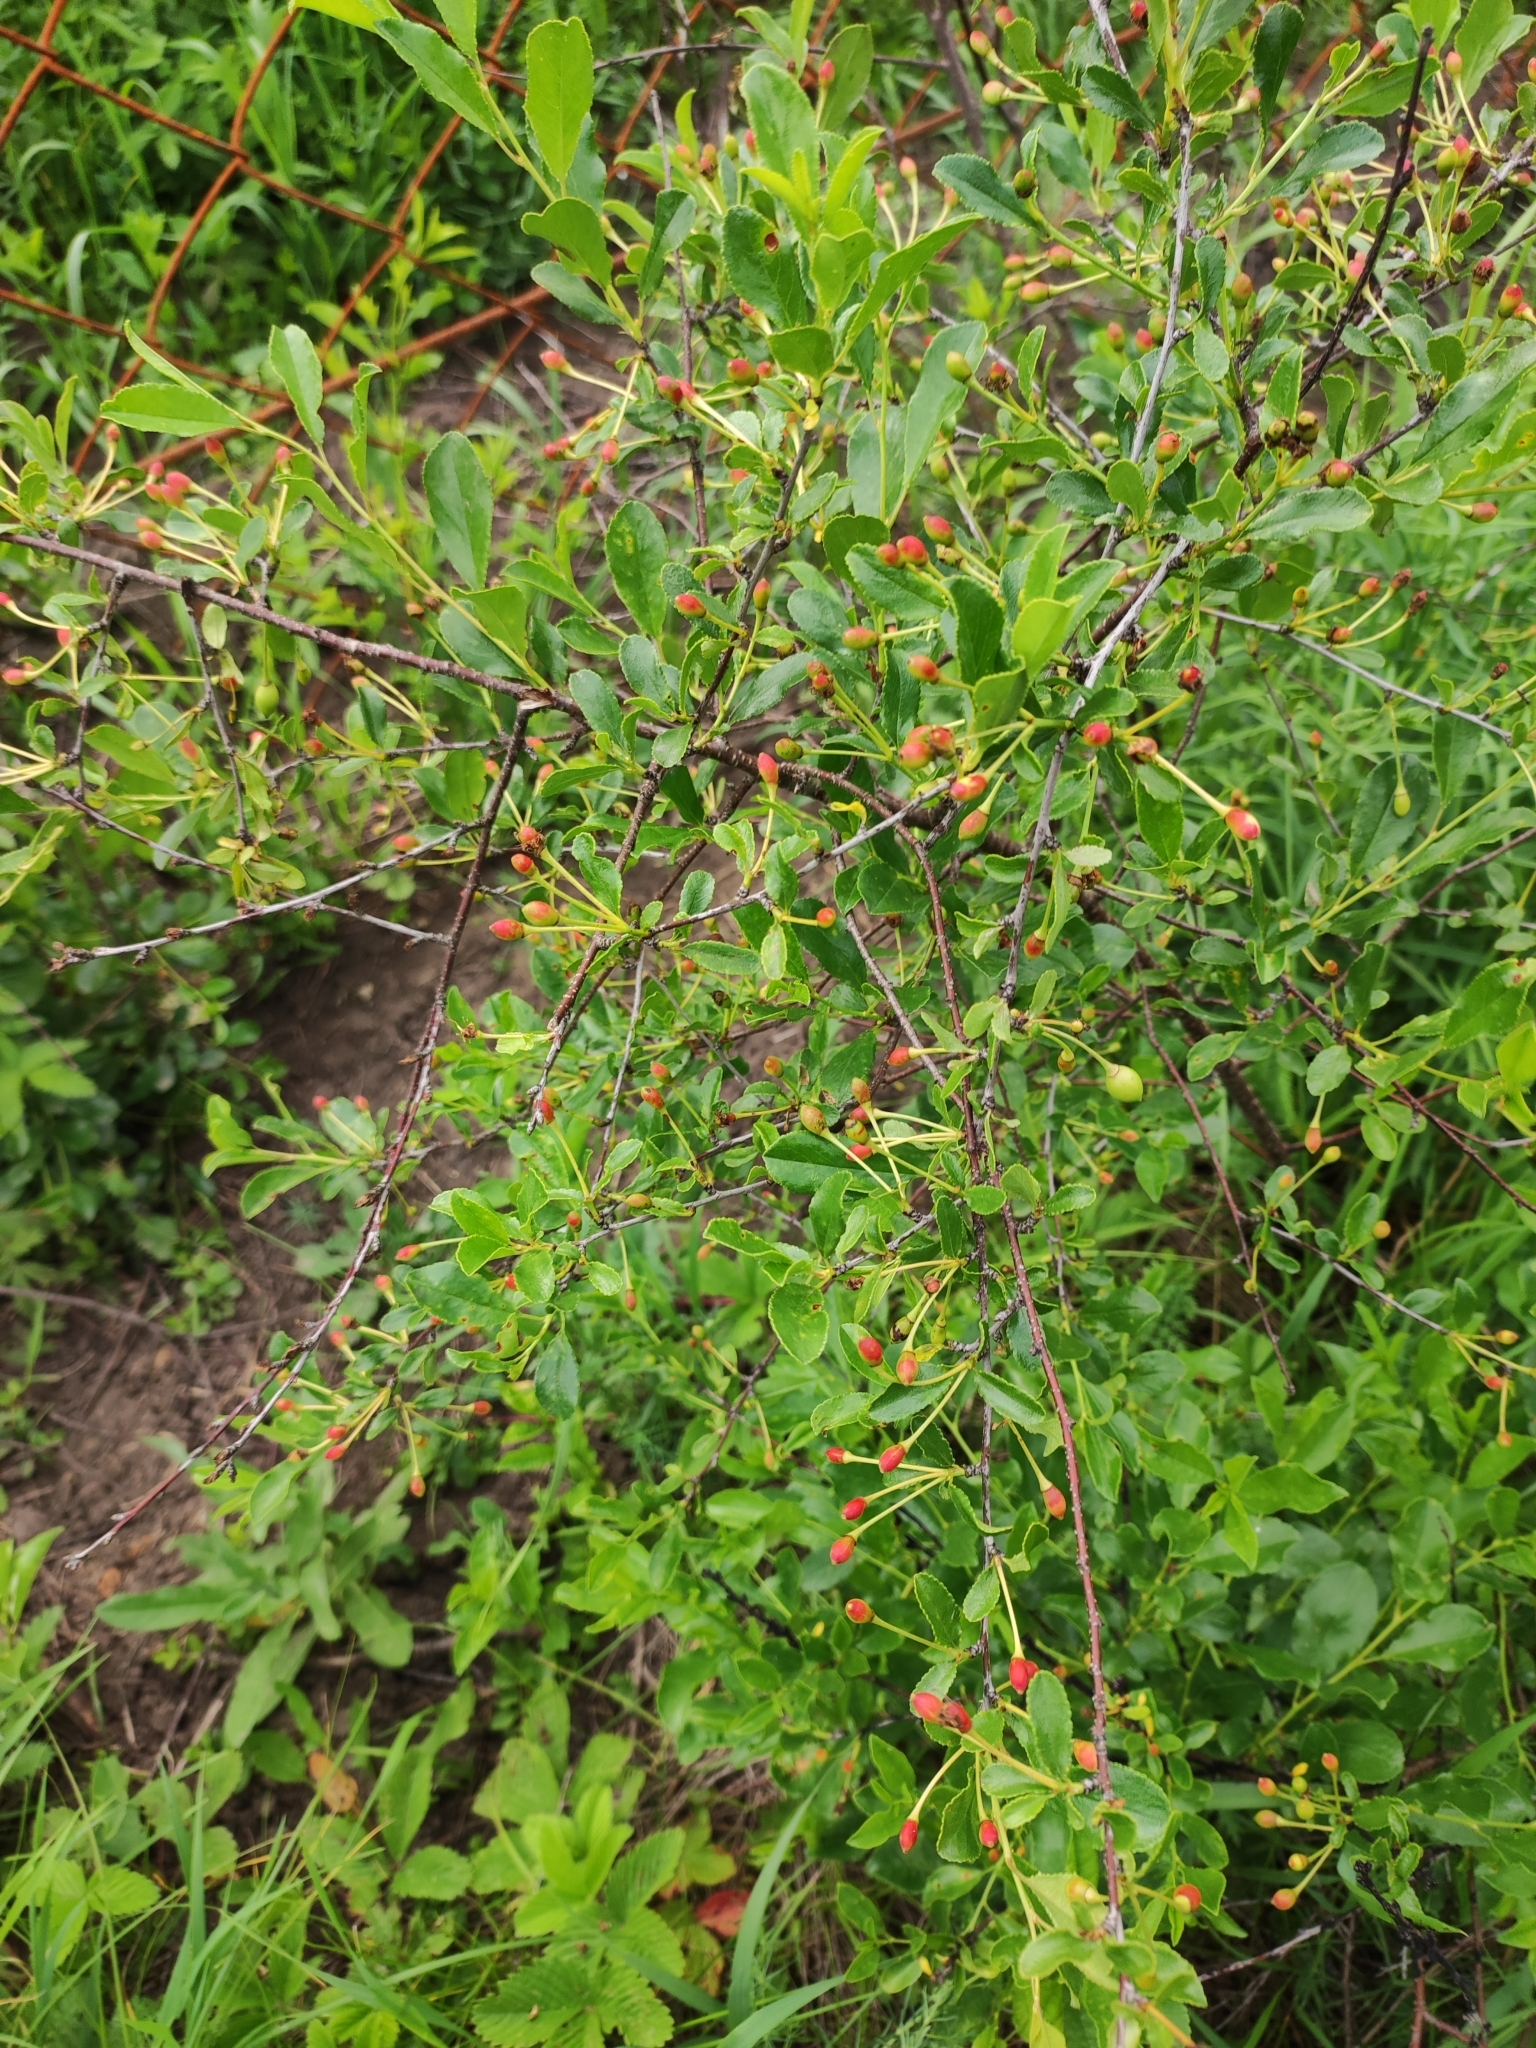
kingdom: Plantae
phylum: Tracheophyta
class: Magnoliopsida
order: Rosales
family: Rosaceae
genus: Prunus
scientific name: Prunus fruticosa
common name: European dwarf cherry
